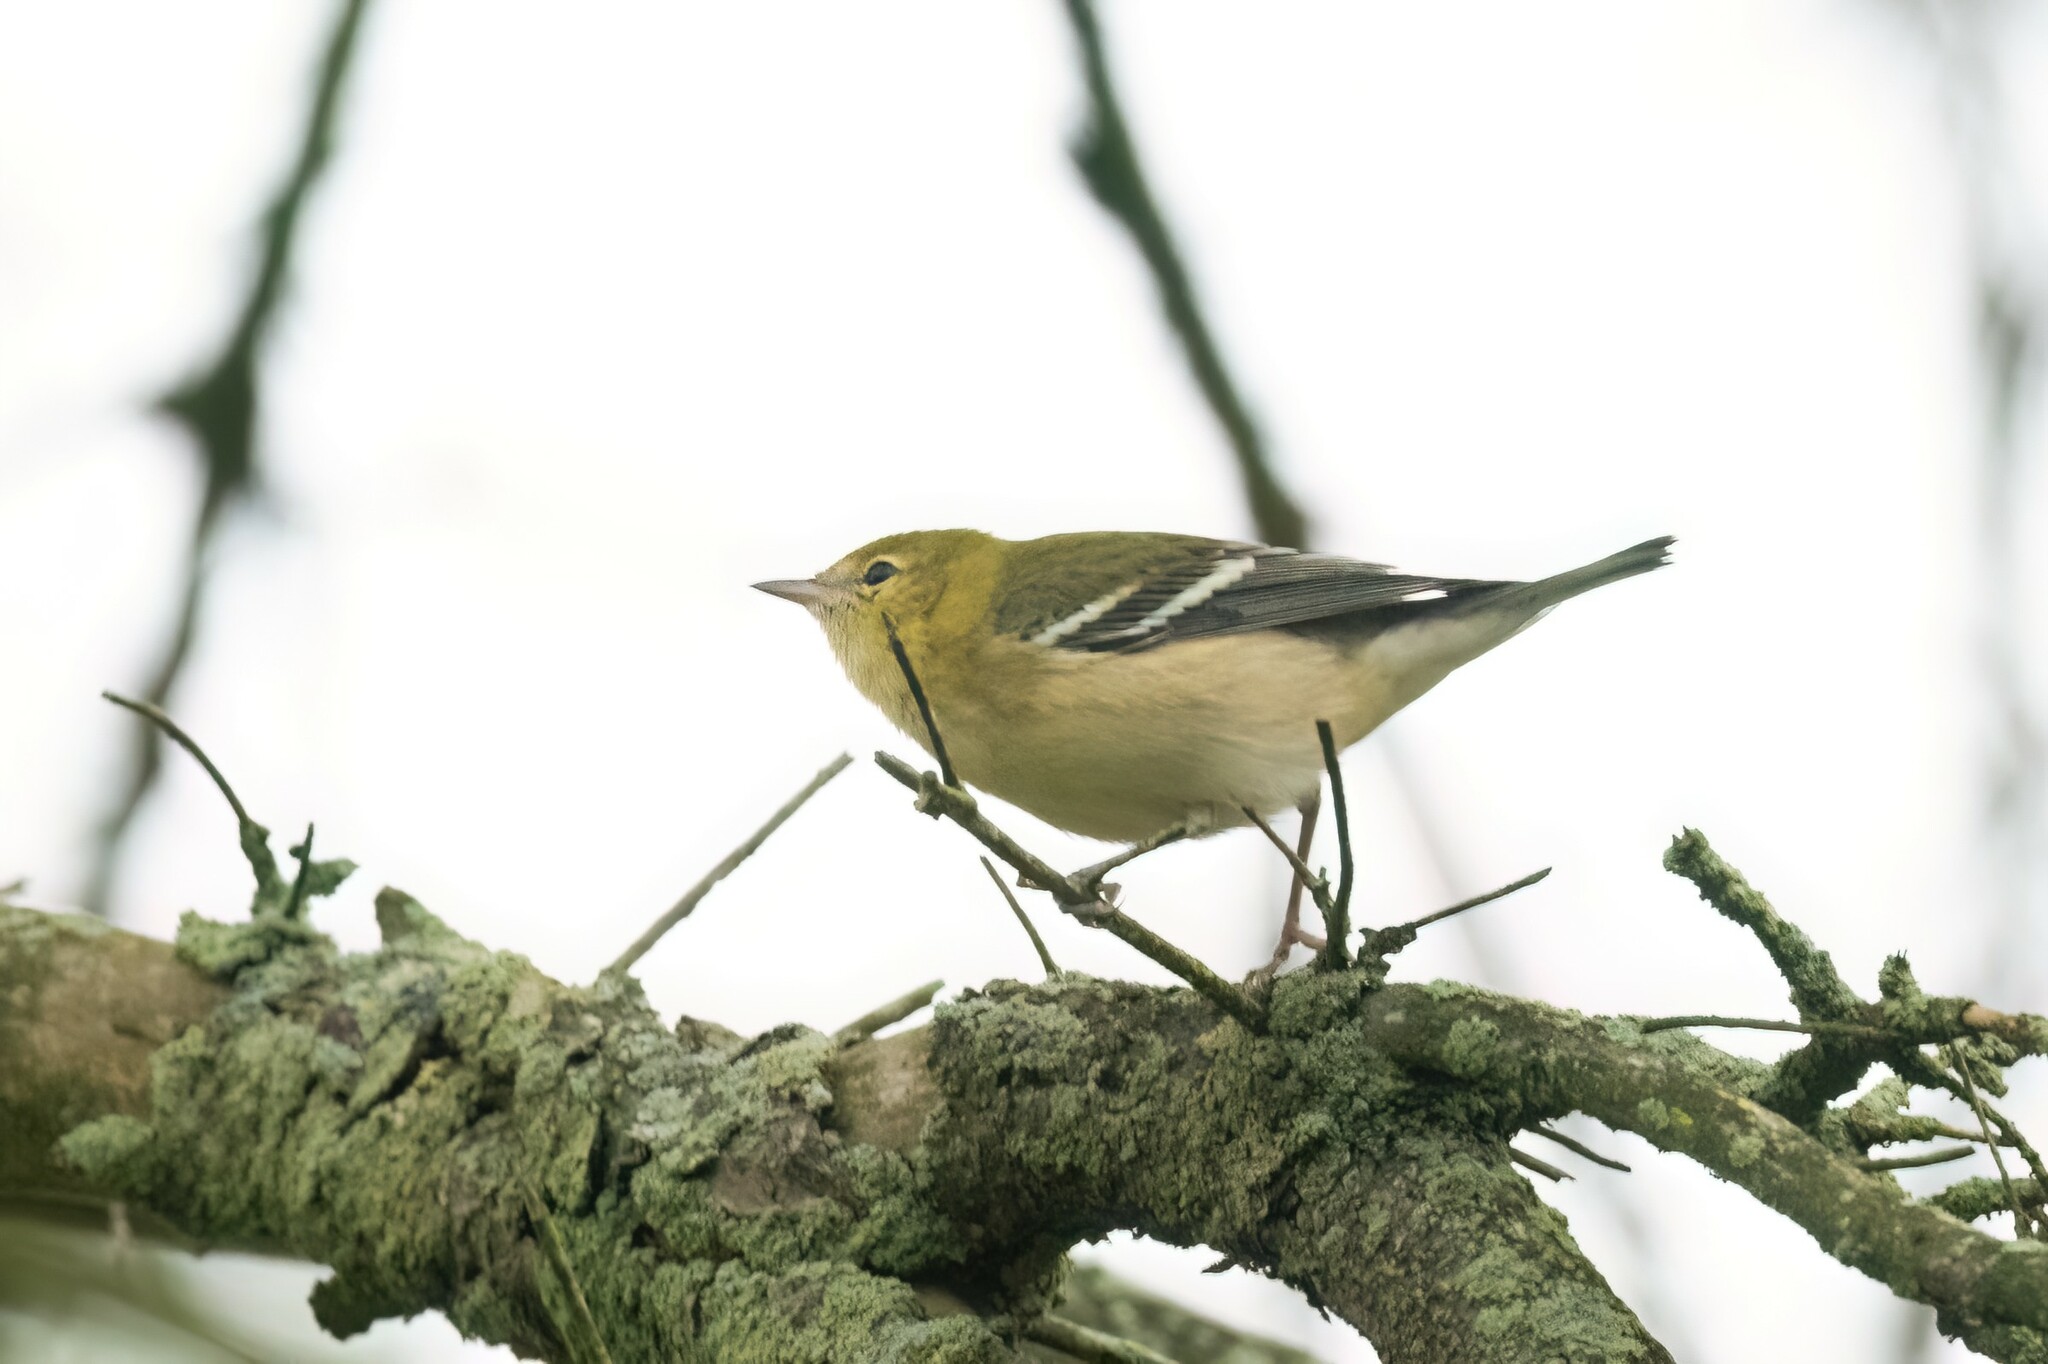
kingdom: Animalia
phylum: Chordata
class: Aves
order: Passeriformes
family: Parulidae
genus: Setophaga
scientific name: Setophaga castanea
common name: Bay-breasted warbler
